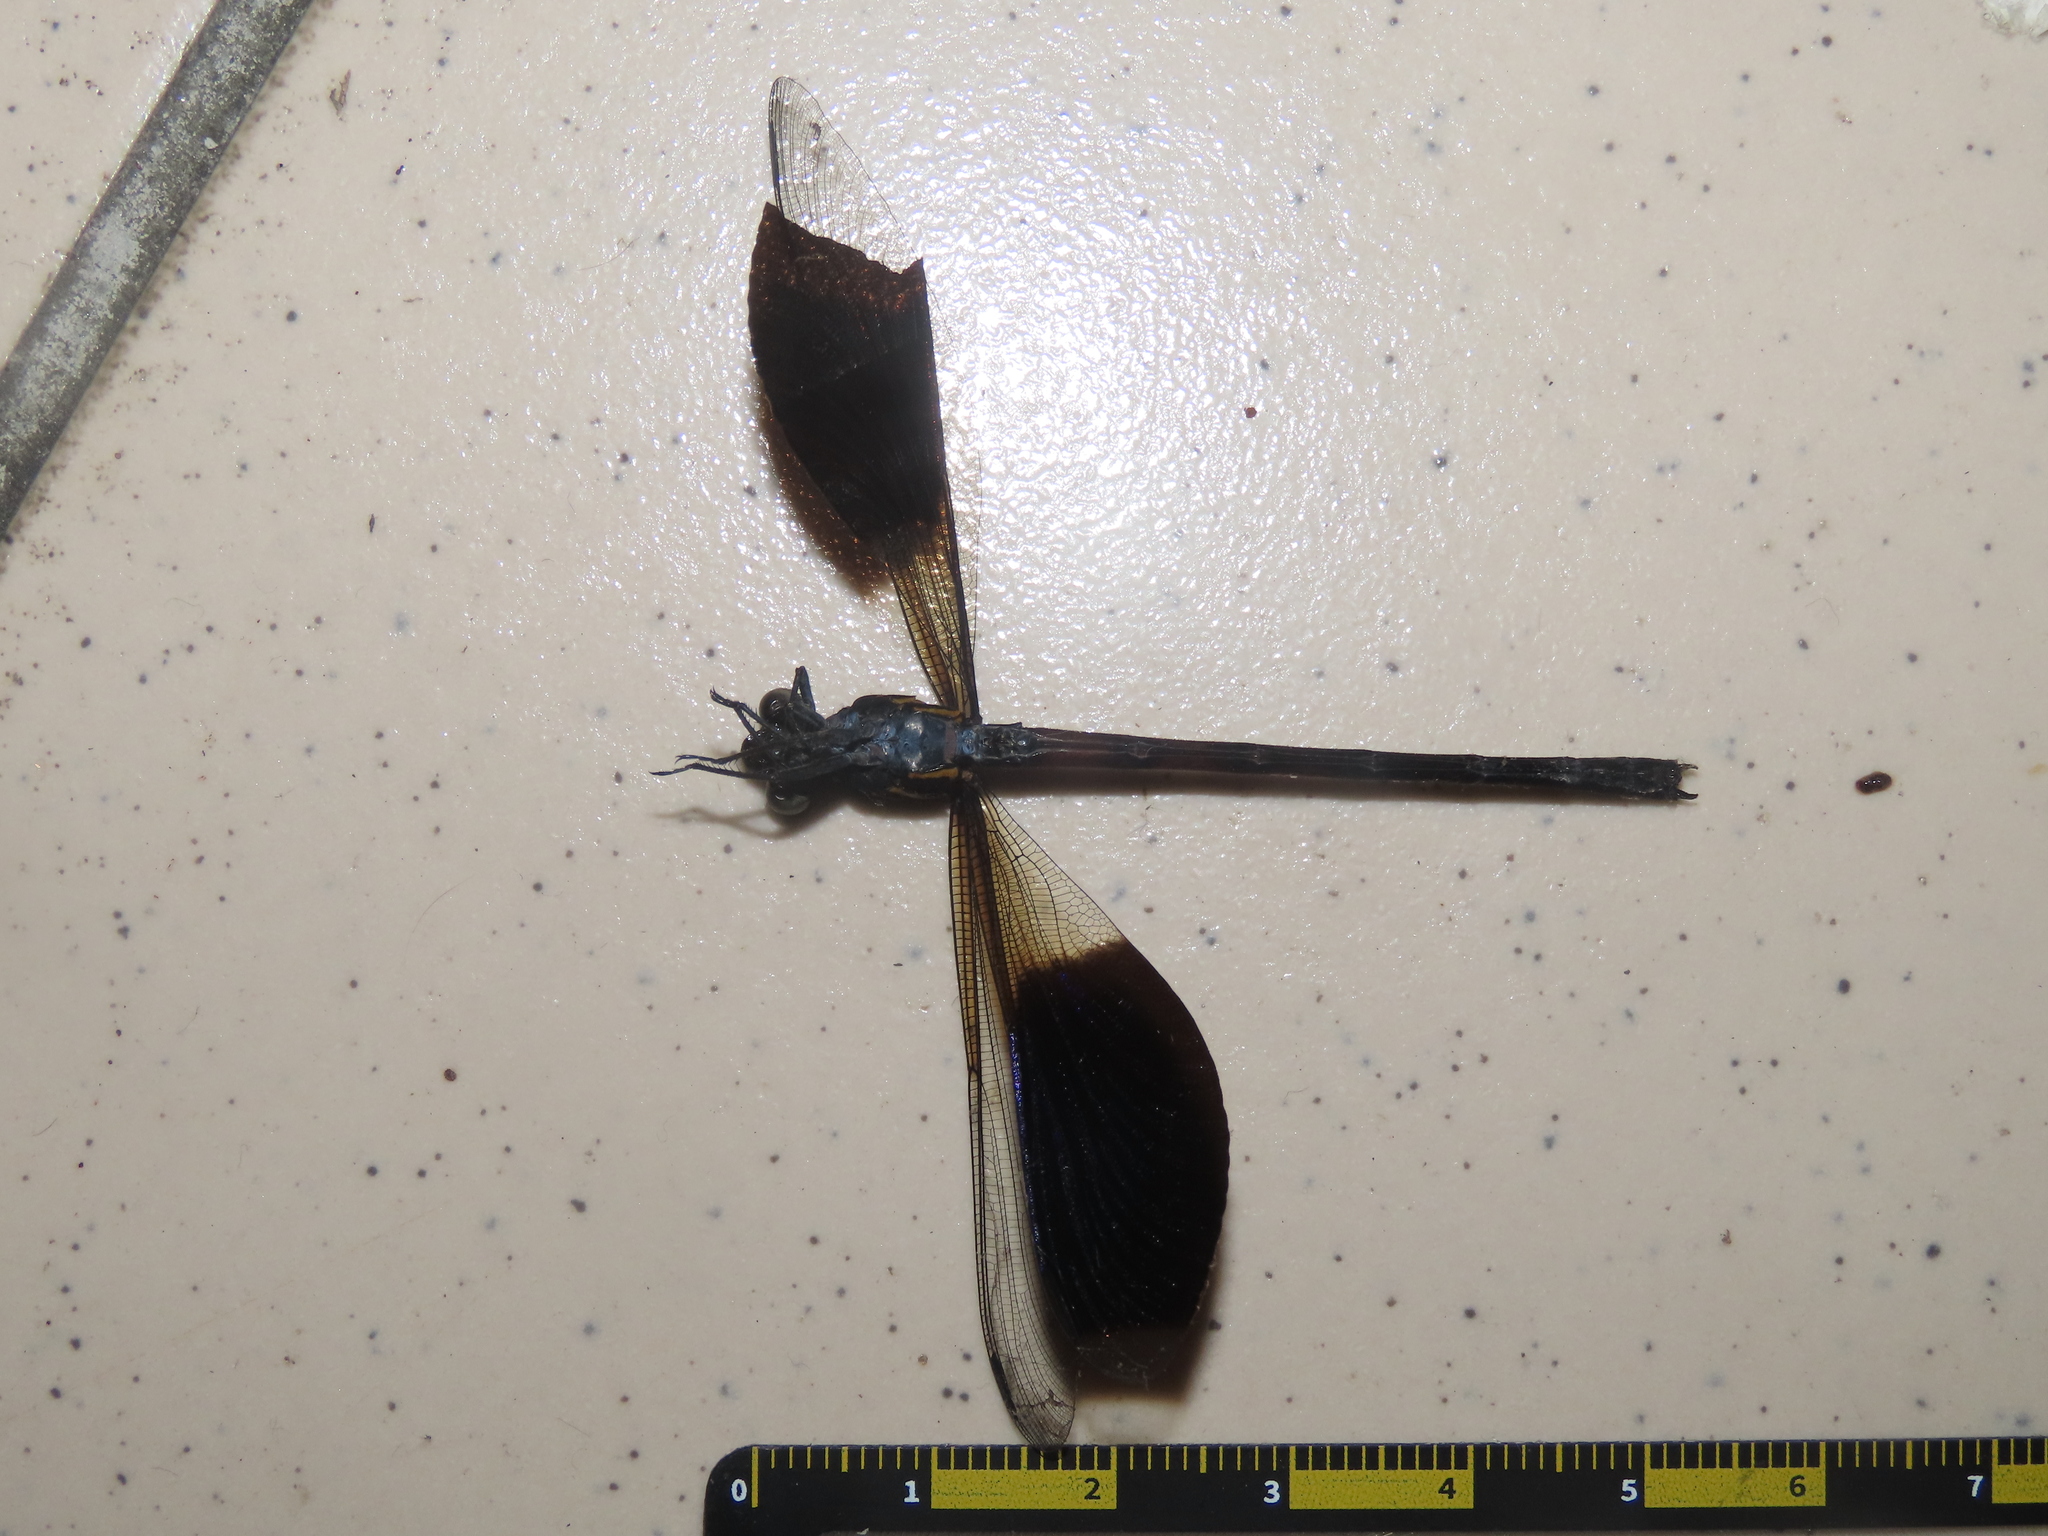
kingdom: Animalia
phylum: Arthropoda
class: Insecta
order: Odonata
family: Euphaeidae
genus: Euphaea
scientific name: Euphaea formosa
